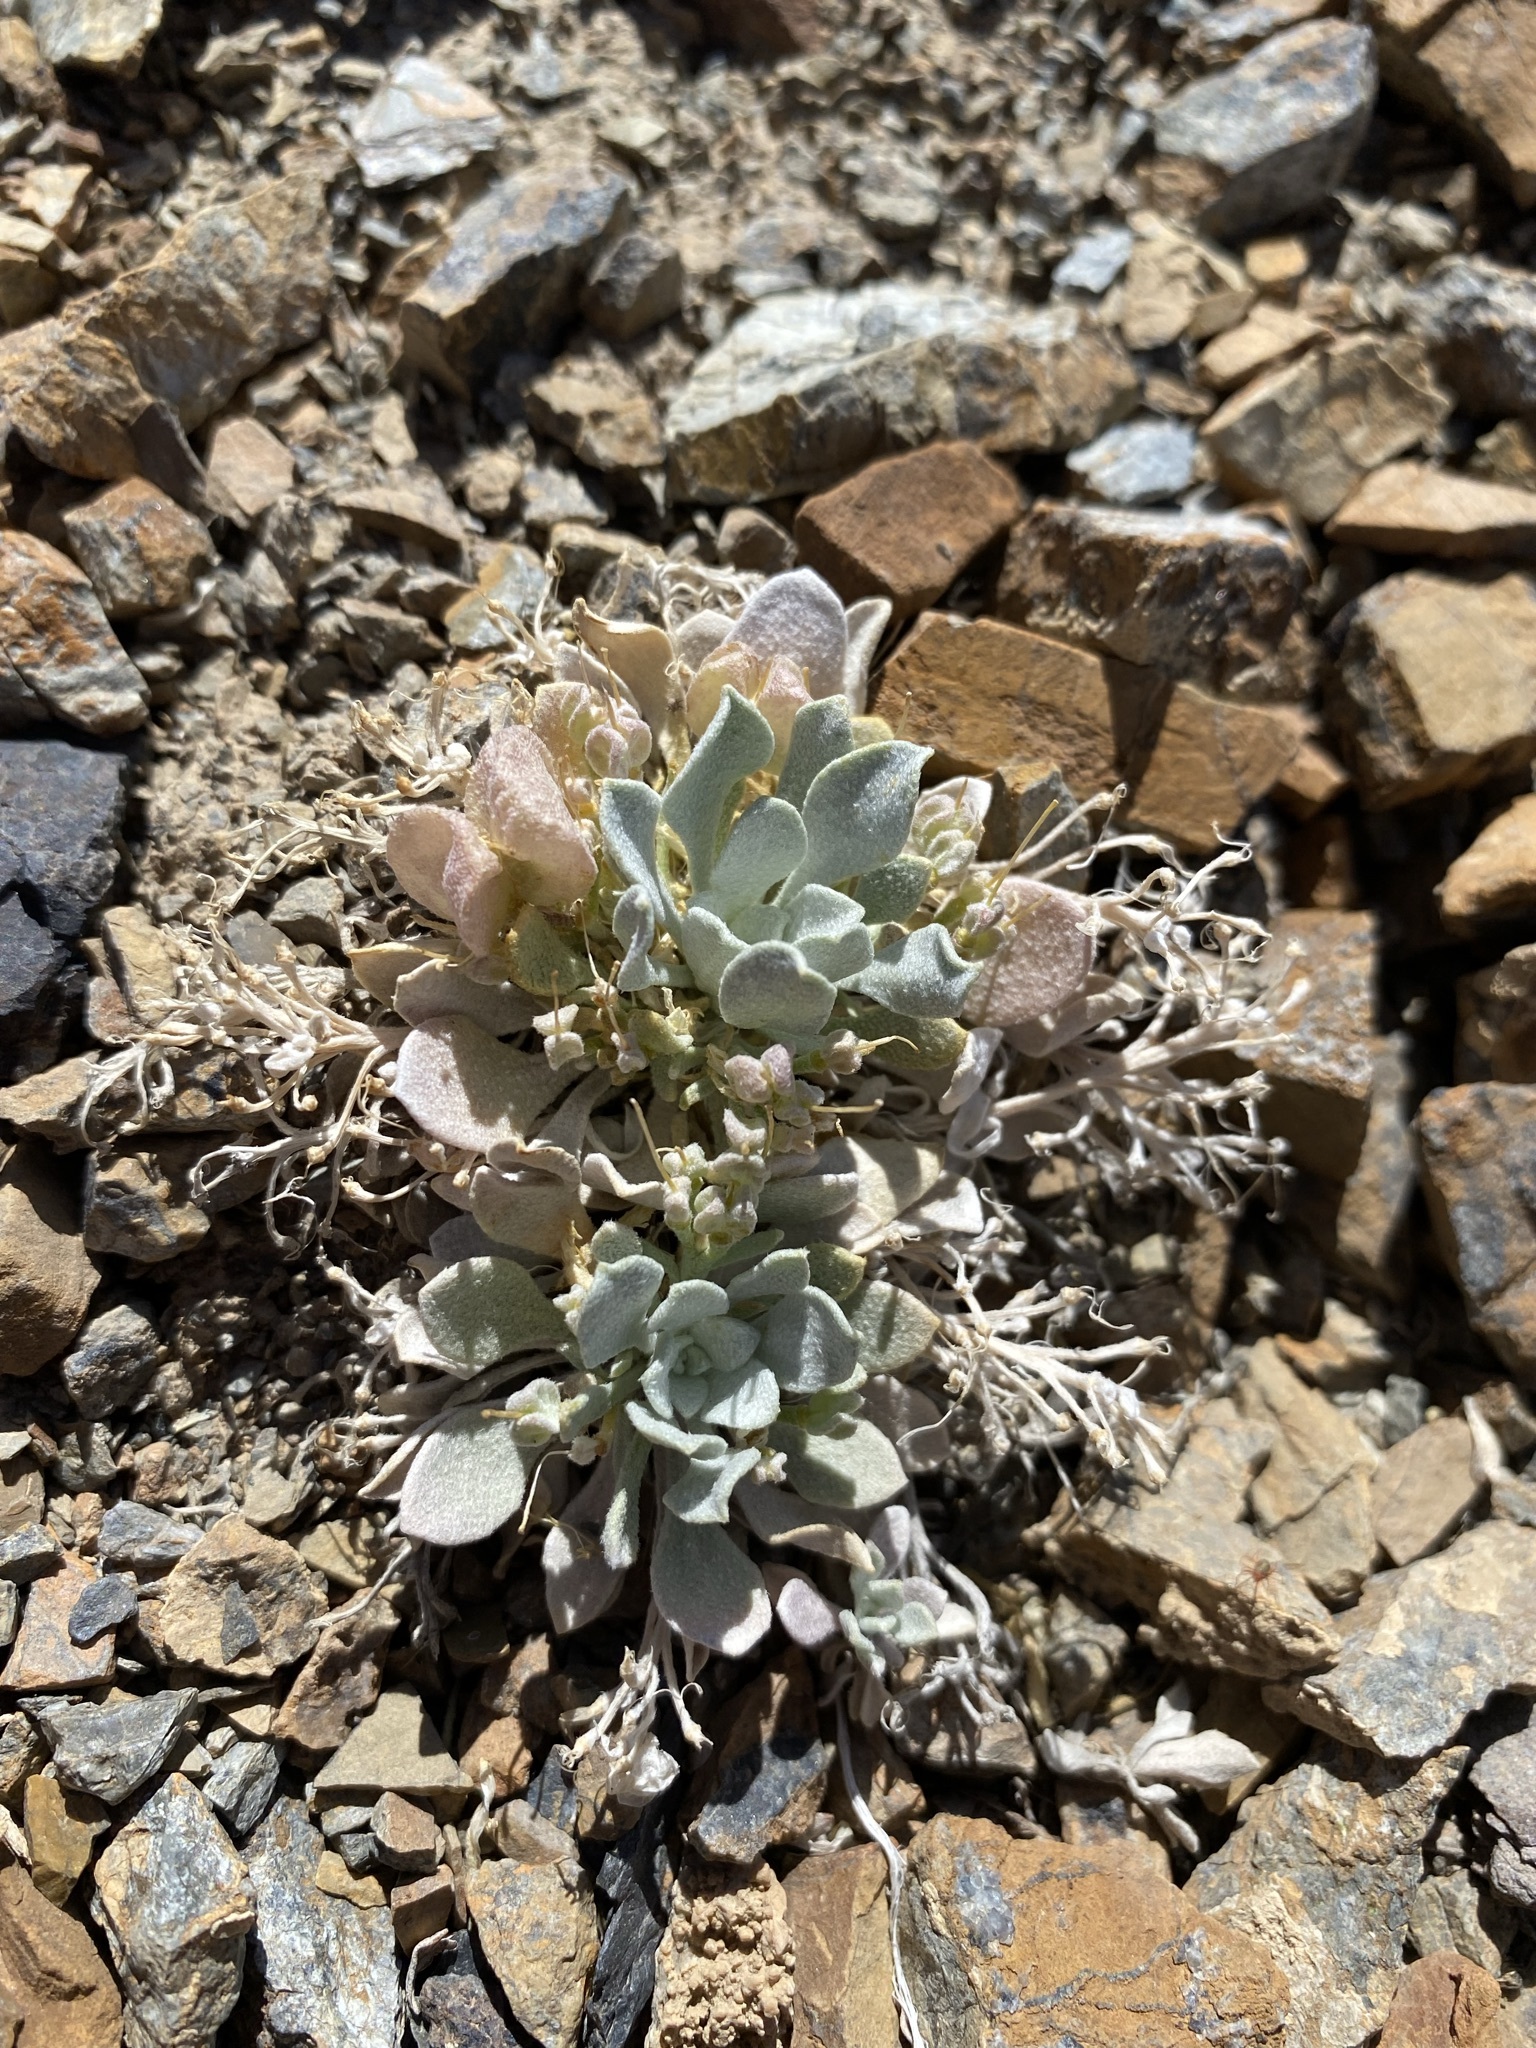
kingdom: Plantae
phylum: Tracheophyta
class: Magnoliopsida
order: Brassicales
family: Brassicaceae
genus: Physaria
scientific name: Physaria chambersii
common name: Chamber's twinpod
